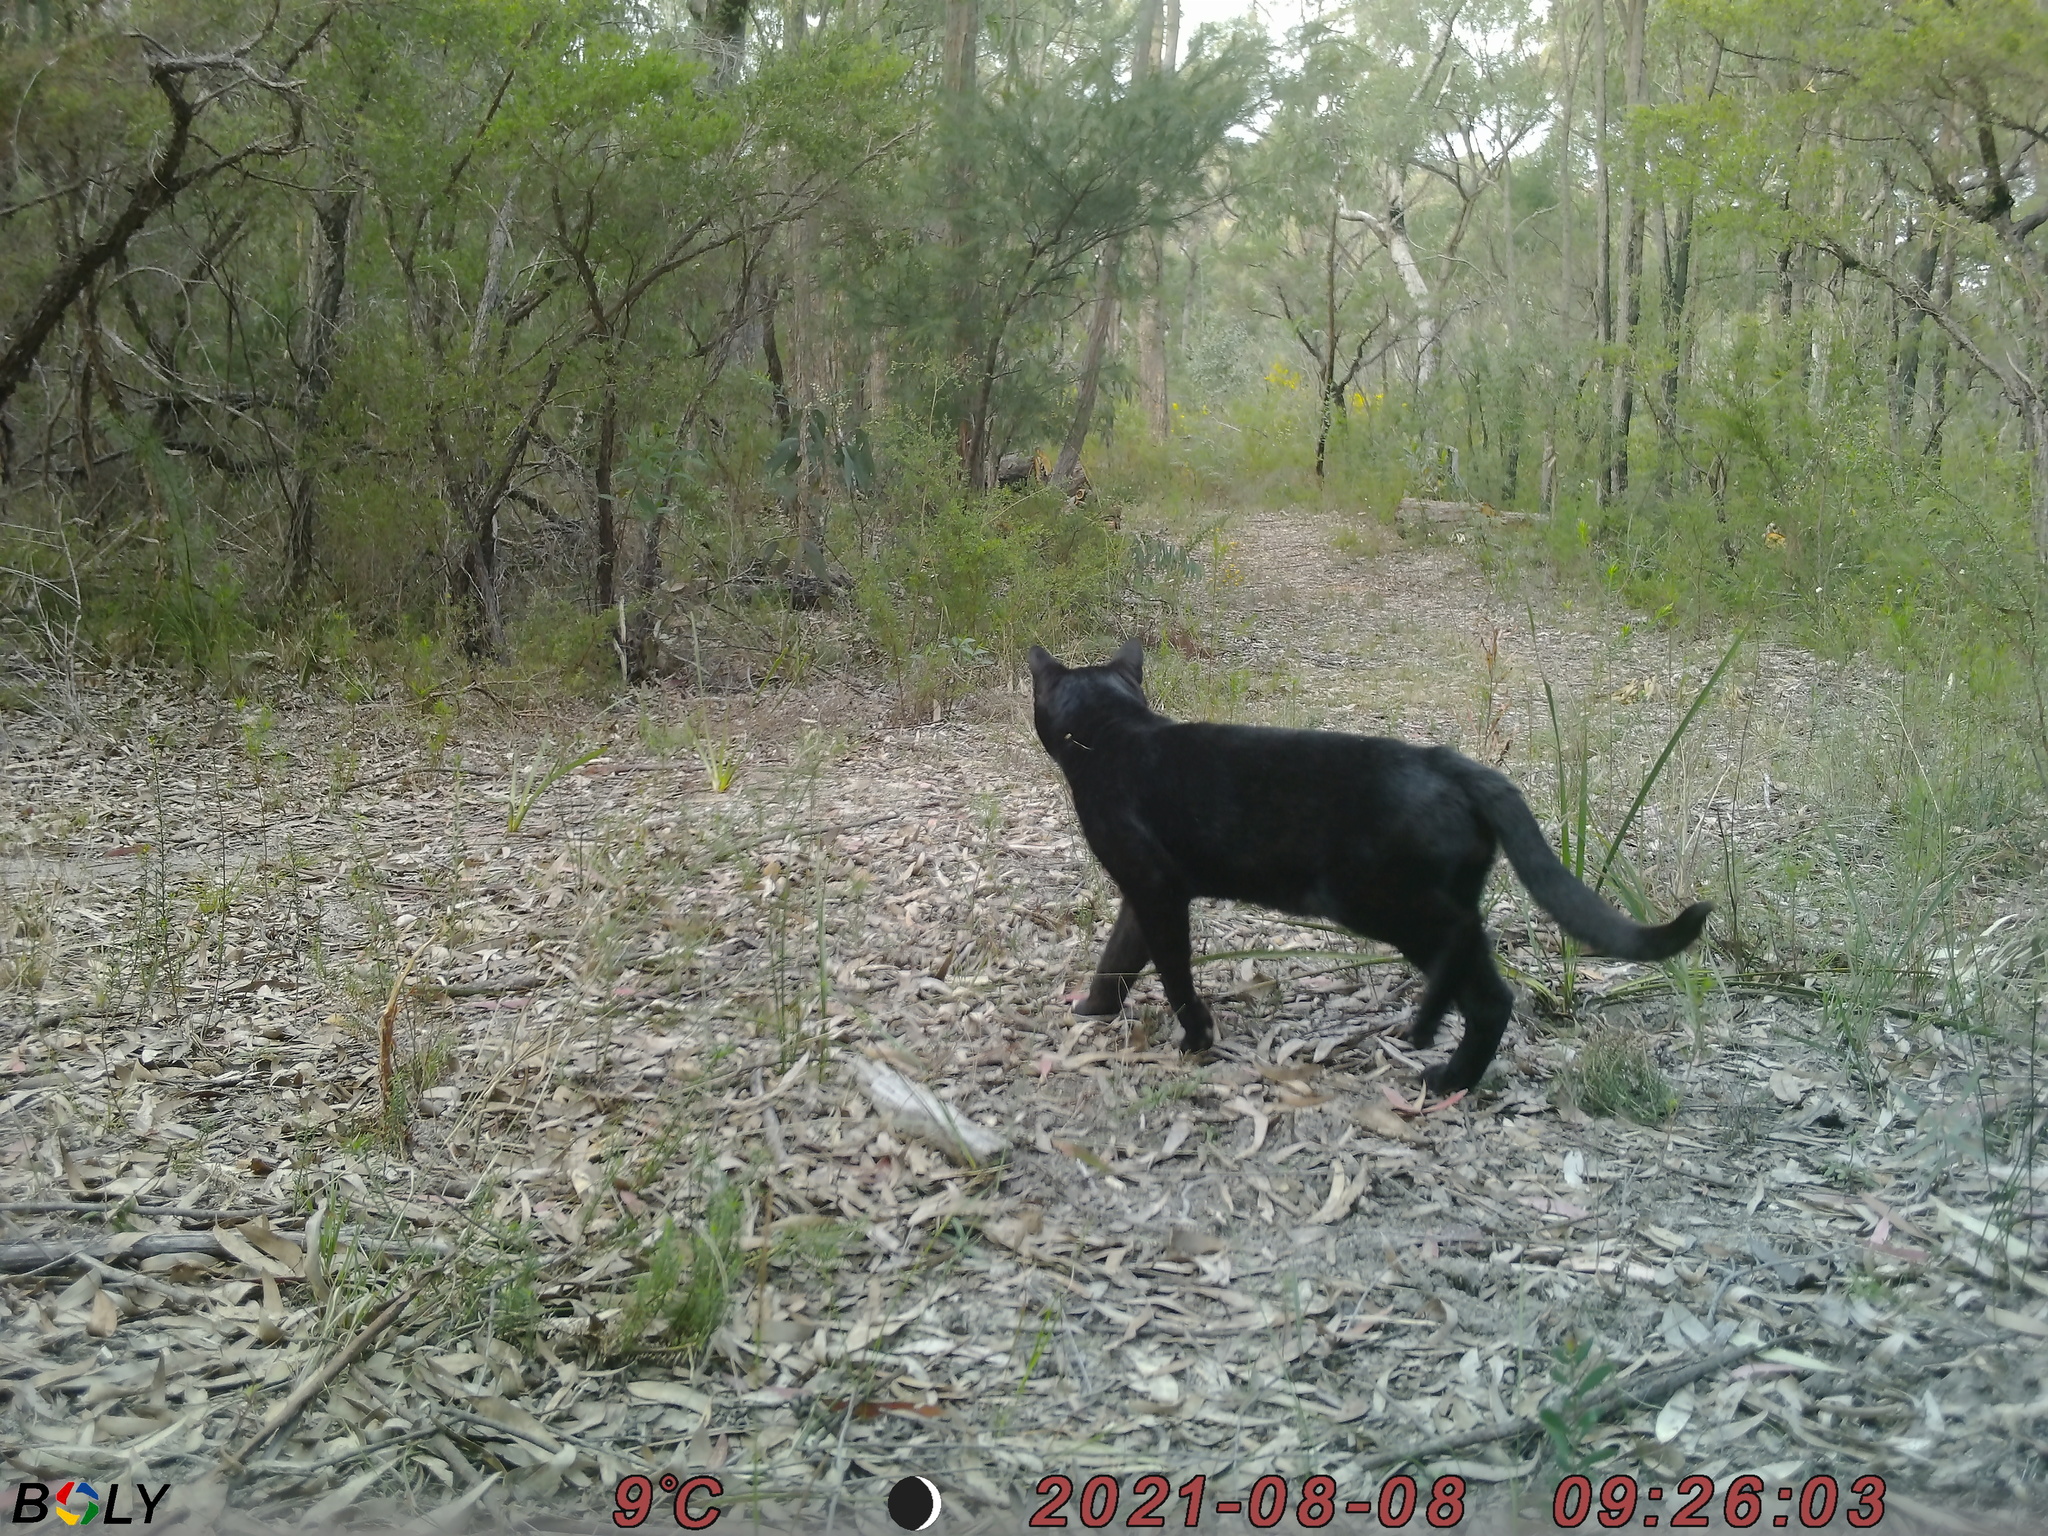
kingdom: Animalia
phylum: Chordata
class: Mammalia
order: Carnivora
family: Felidae
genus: Felis
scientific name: Felis catus
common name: Domestic cat
